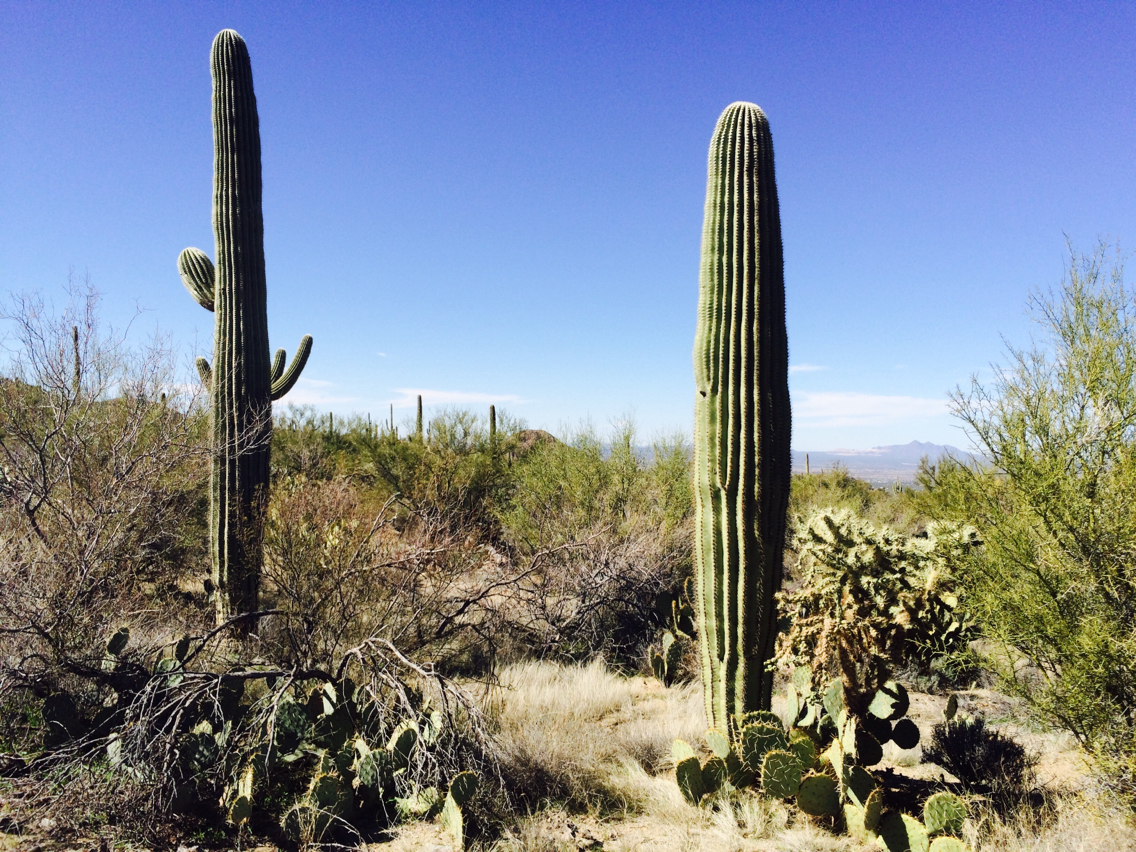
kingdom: Plantae
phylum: Tracheophyta
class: Magnoliopsida
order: Caryophyllales
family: Cactaceae
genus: Carnegiea
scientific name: Carnegiea gigantea
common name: Saguaro
